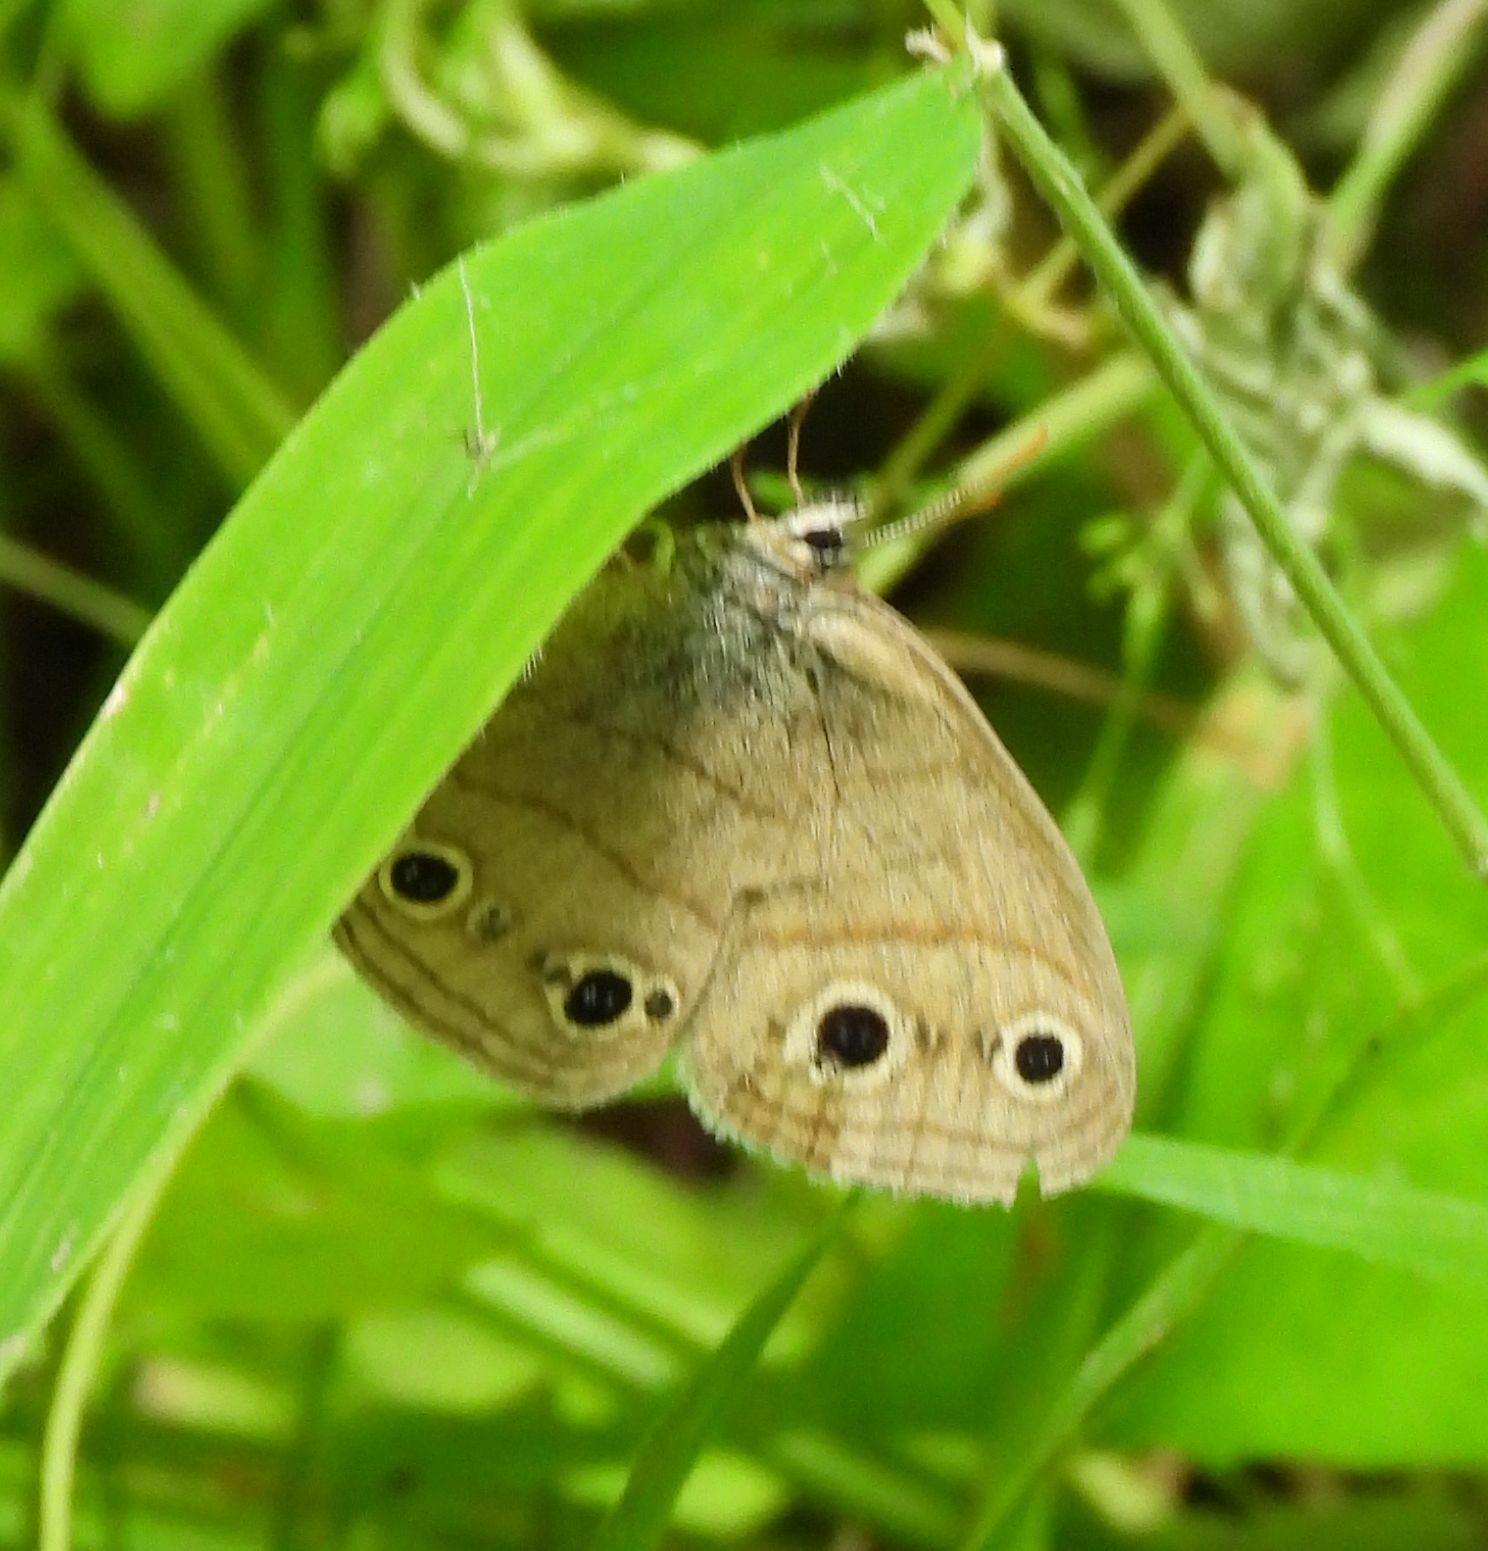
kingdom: Animalia
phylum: Arthropoda
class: Insecta
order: Lepidoptera
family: Nymphalidae
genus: Euptychia
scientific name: Euptychia cymela
